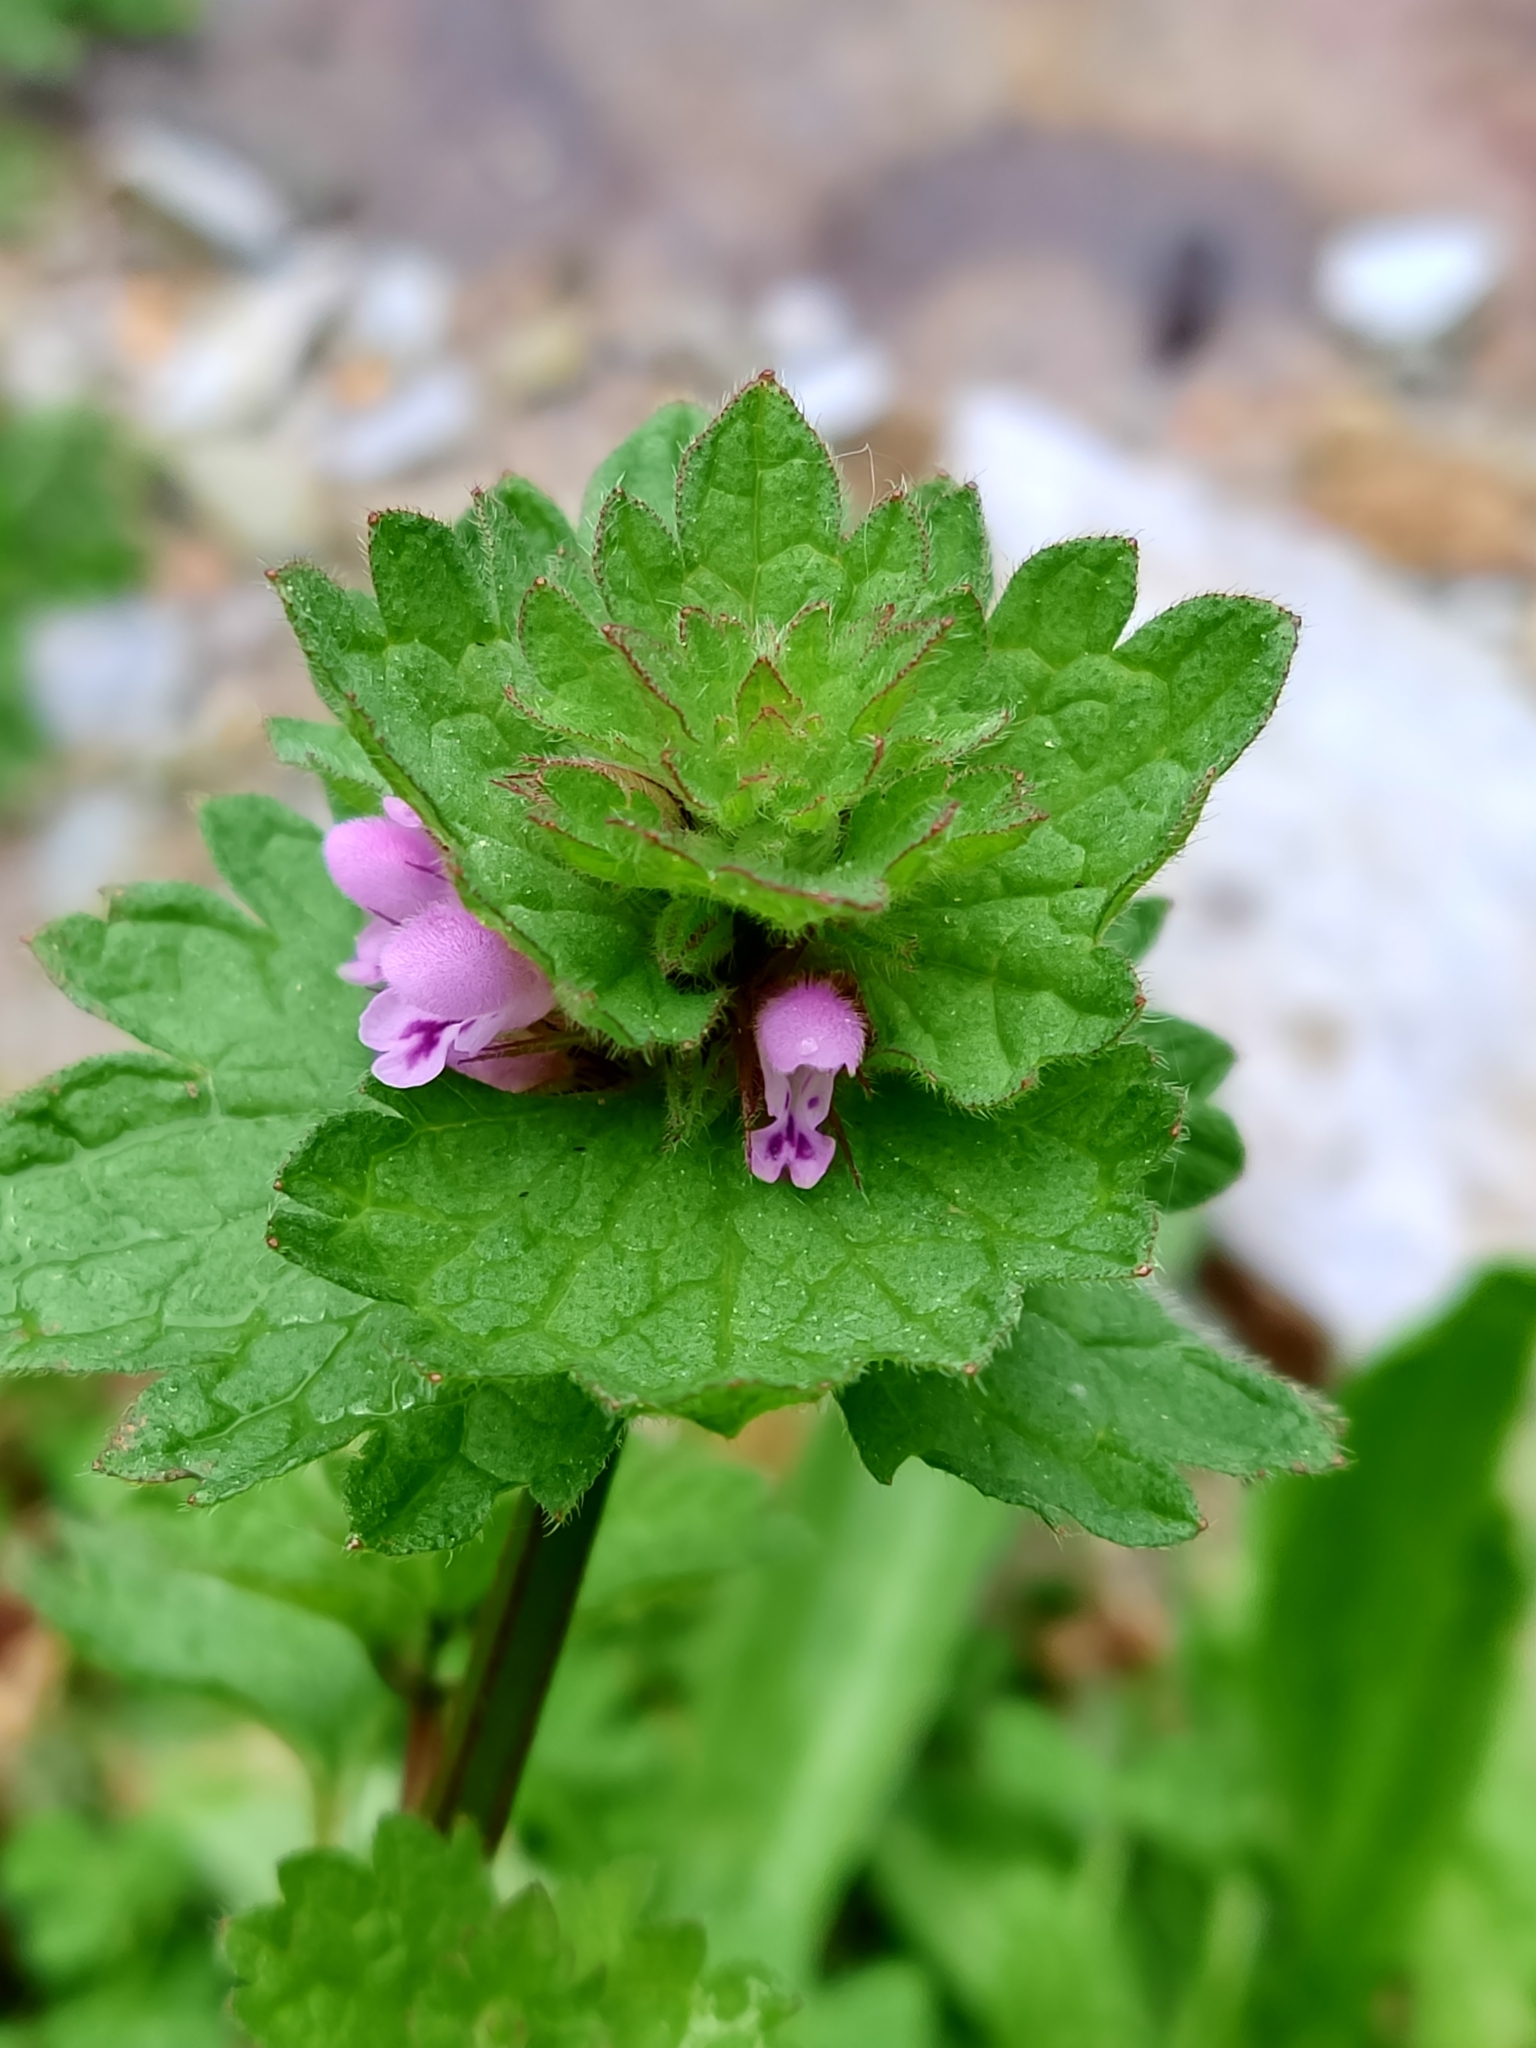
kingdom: Plantae
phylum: Tracheophyta
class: Magnoliopsida
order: Lamiales
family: Lamiaceae
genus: Lamium
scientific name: Lamium purpureum
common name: Red dead-nettle
